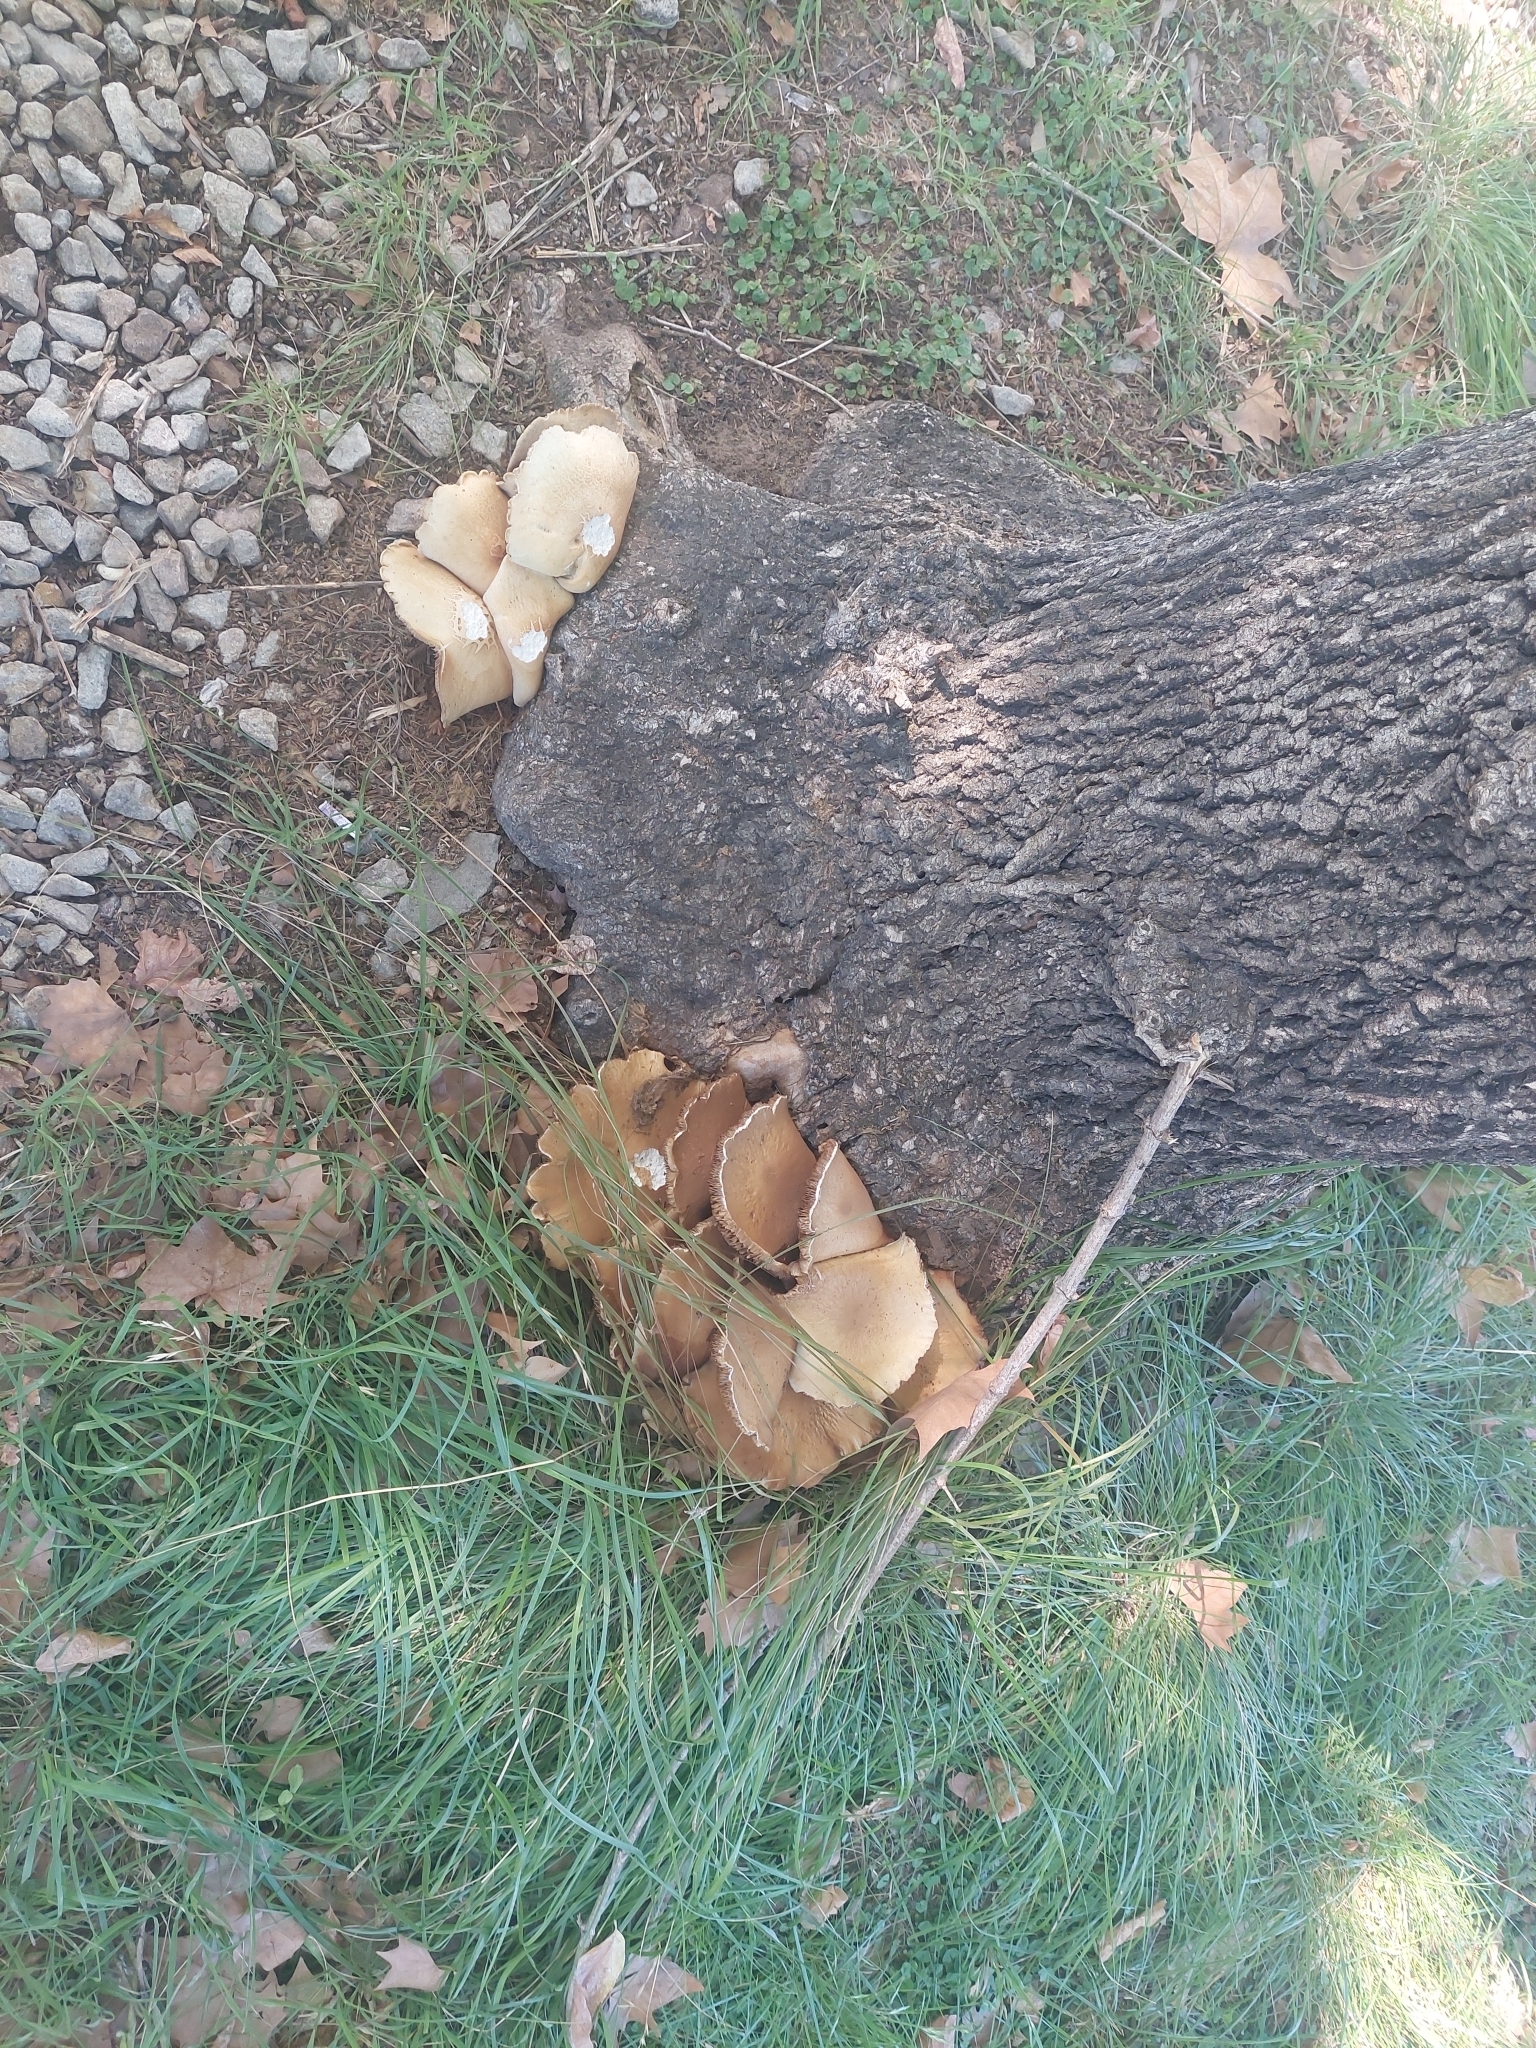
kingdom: Fungi
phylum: Basidiomycota
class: Agaricomycetes
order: Agaricales
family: Tubariaceae
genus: Cyclocybe
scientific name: Cyclocybe parasitica
